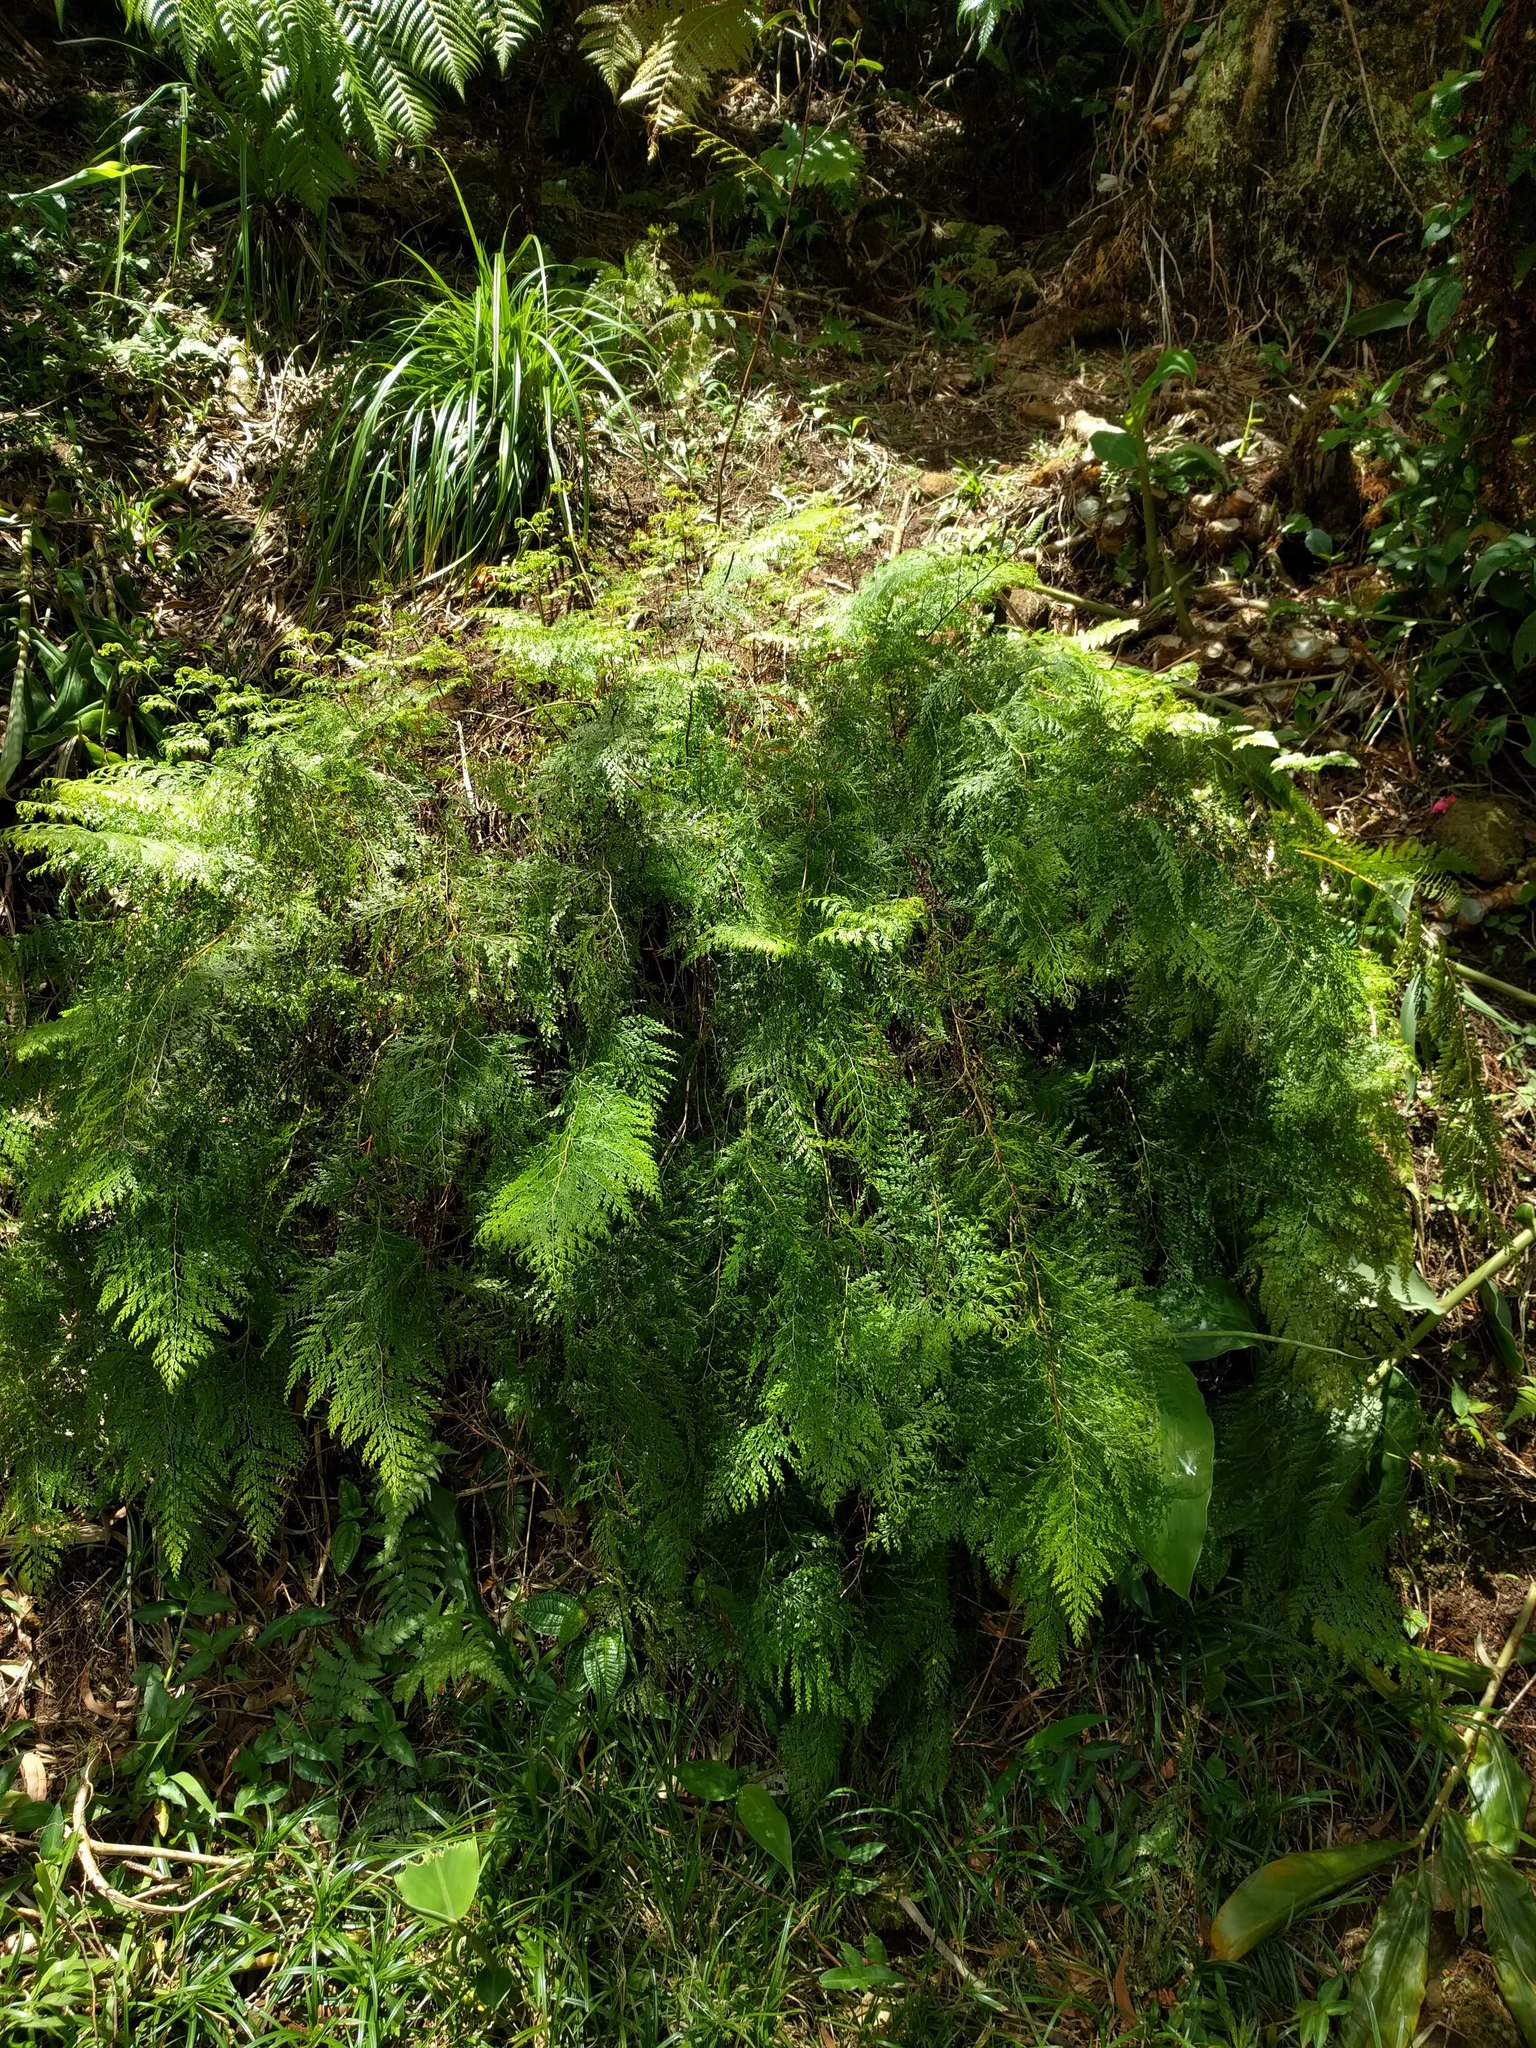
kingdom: Plantae
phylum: Tracheophyta
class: Polypodiopsida
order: Polypodiales
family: Lindsaeaceae
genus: Odontosoria
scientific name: Odontosoria chinensis
